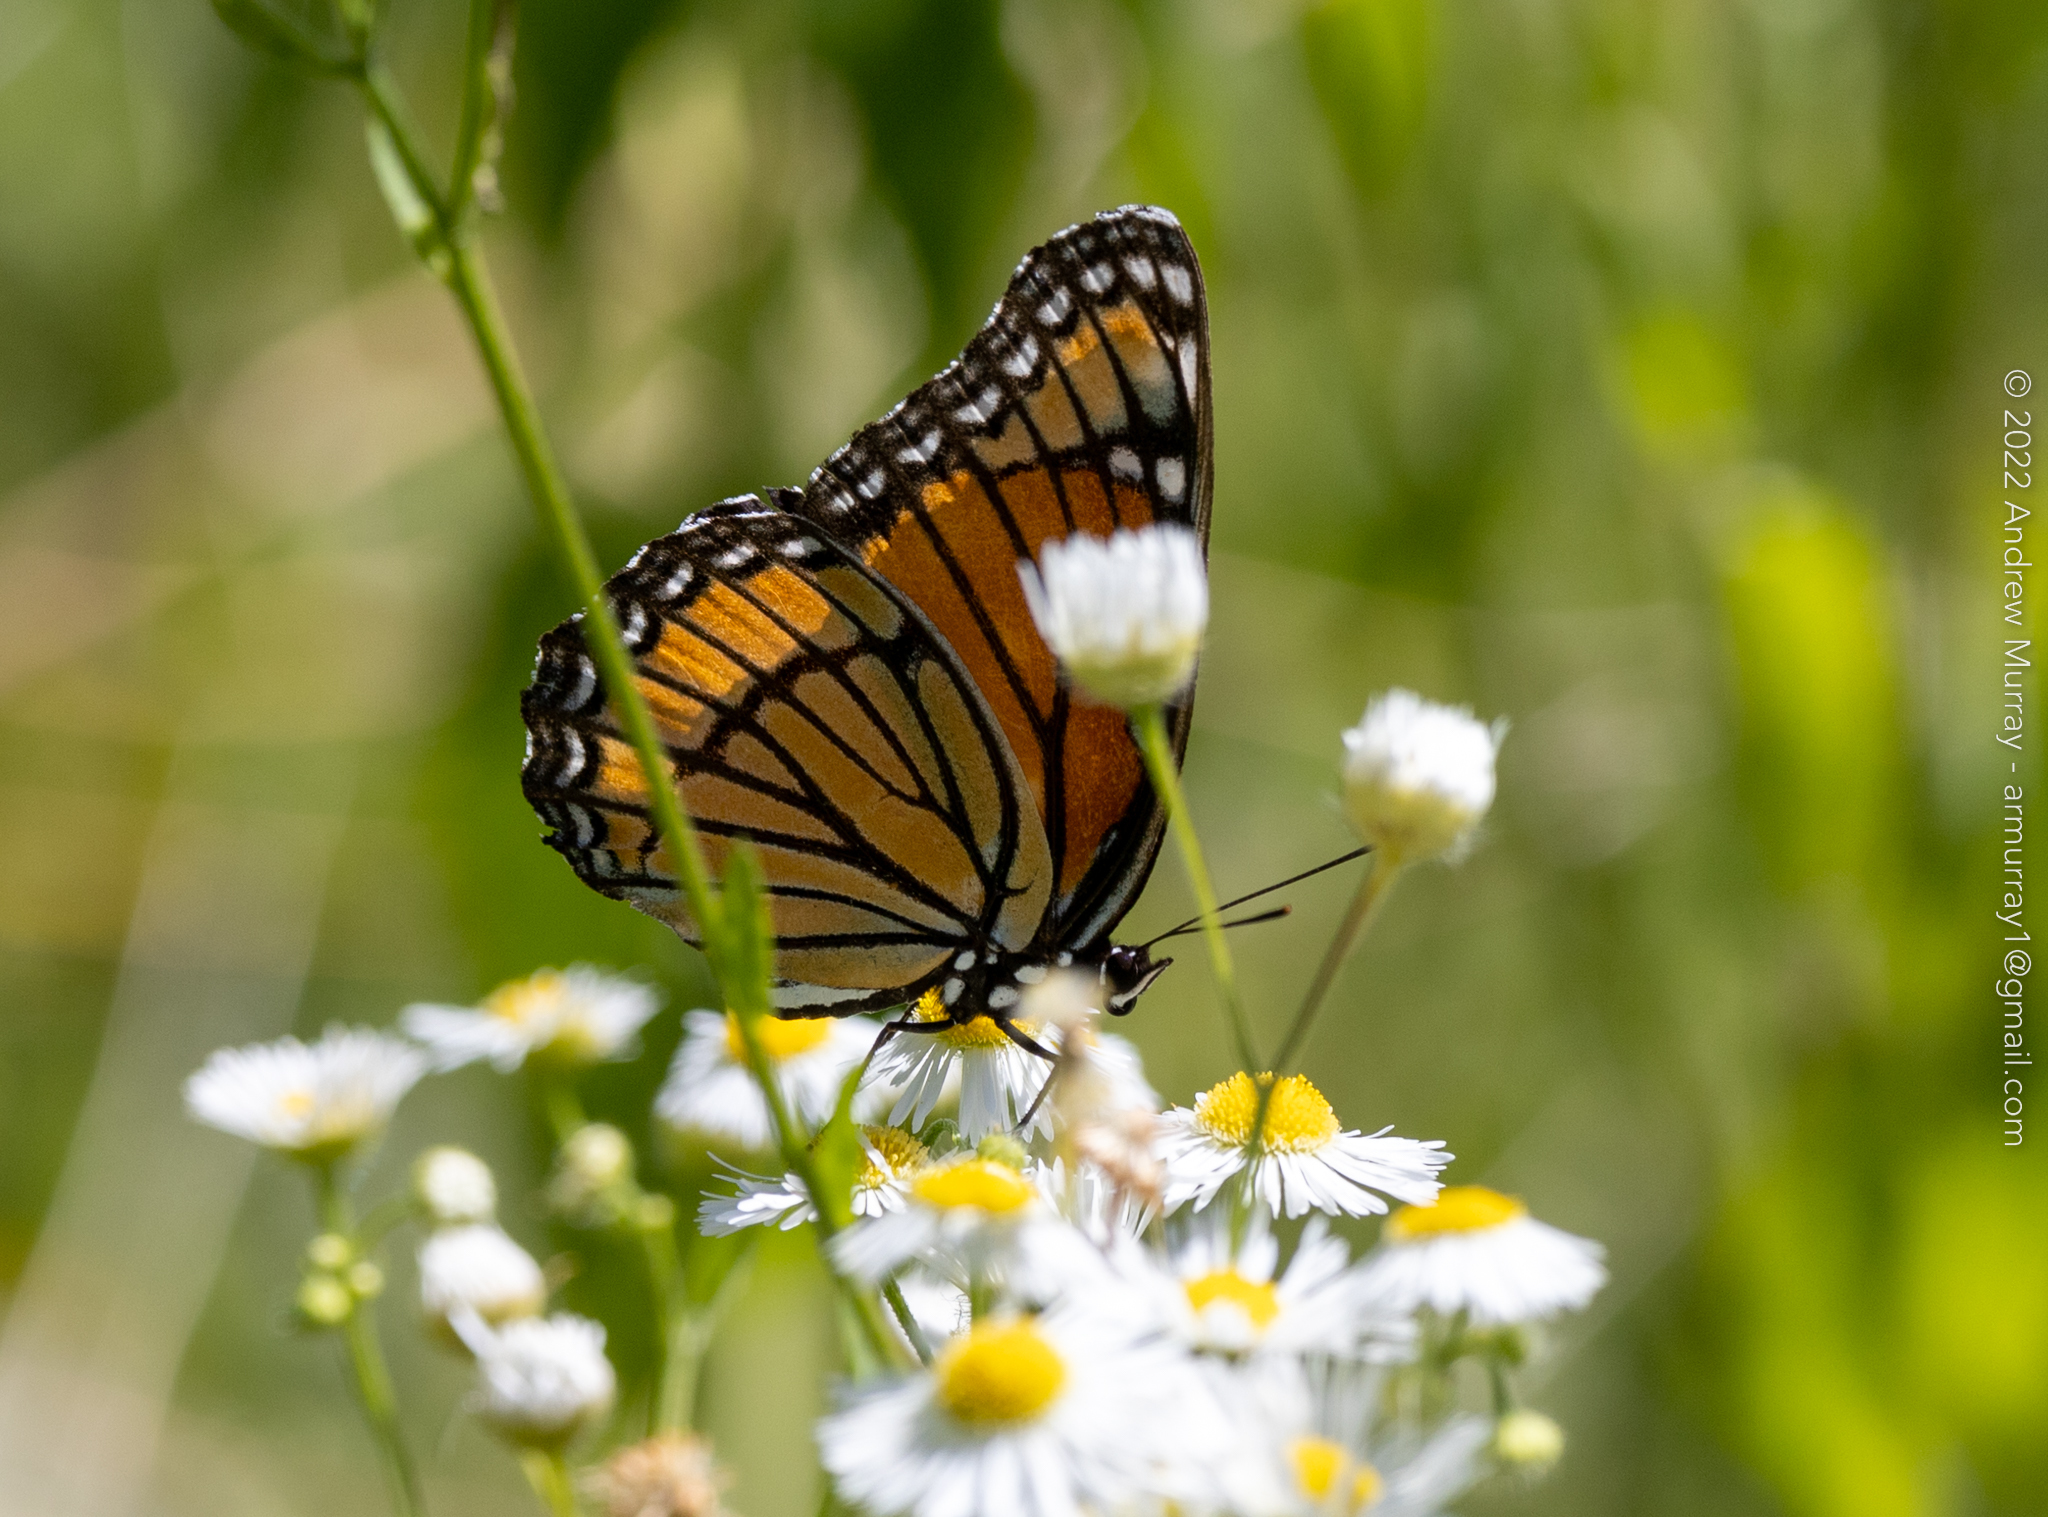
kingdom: Animalia
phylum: Arthropoda
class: Insecta
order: Lepidoptera
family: Nymphalidae
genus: Limenitis
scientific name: Limenitis archippus
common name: Viceroy
